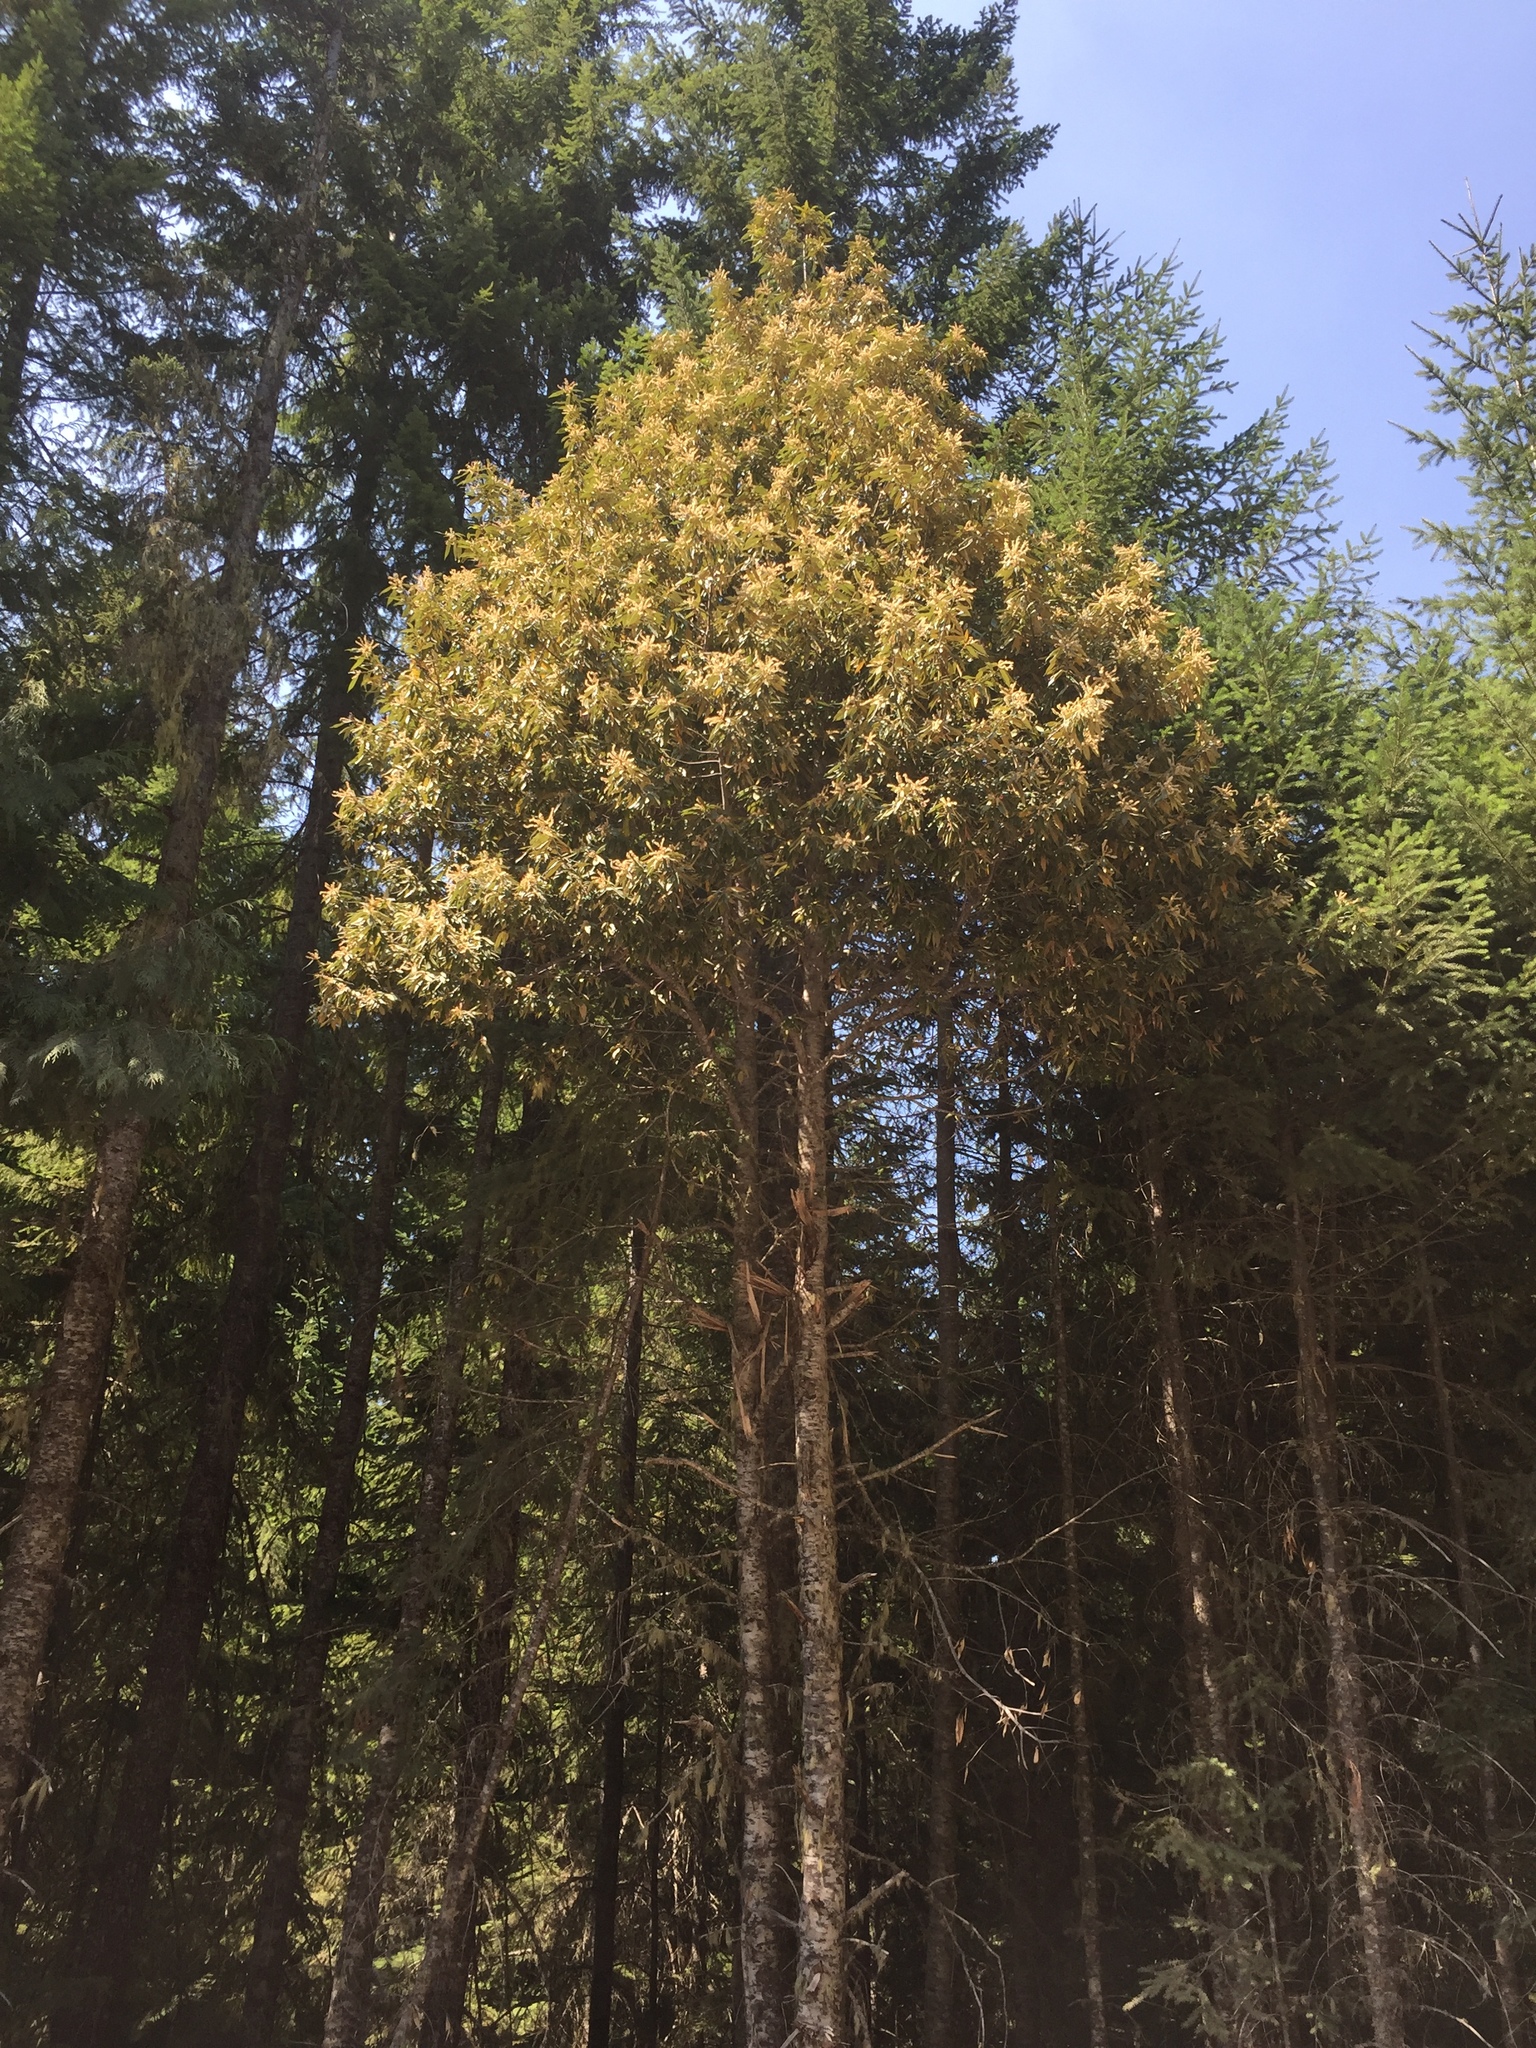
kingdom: Plantae
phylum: Tracheophyta
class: Magnoliopsida
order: Fagales
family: Fagaceae
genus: Chrysolepis
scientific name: Chrysolepis chrysophylla
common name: Giant chinquapin
